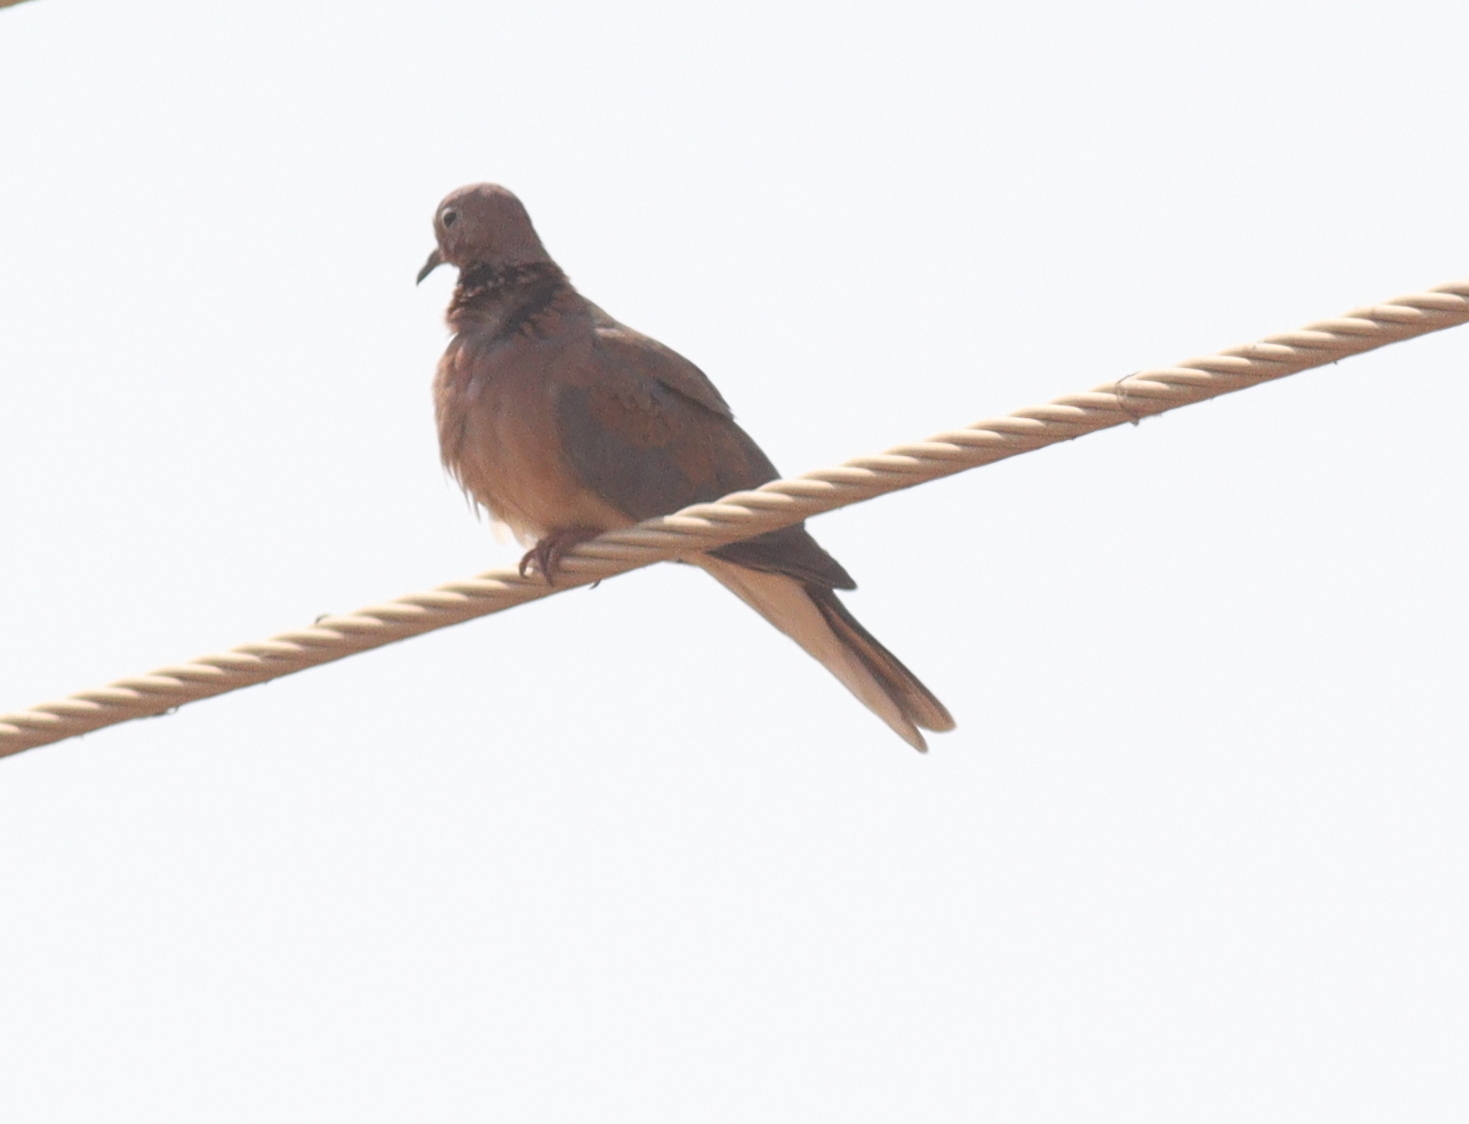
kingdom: Animalia
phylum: Chordata
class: Aves
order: Columbiformes
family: Columbidae
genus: Spilopelia
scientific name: Spilopelia senegalensis
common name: Laughing dove
